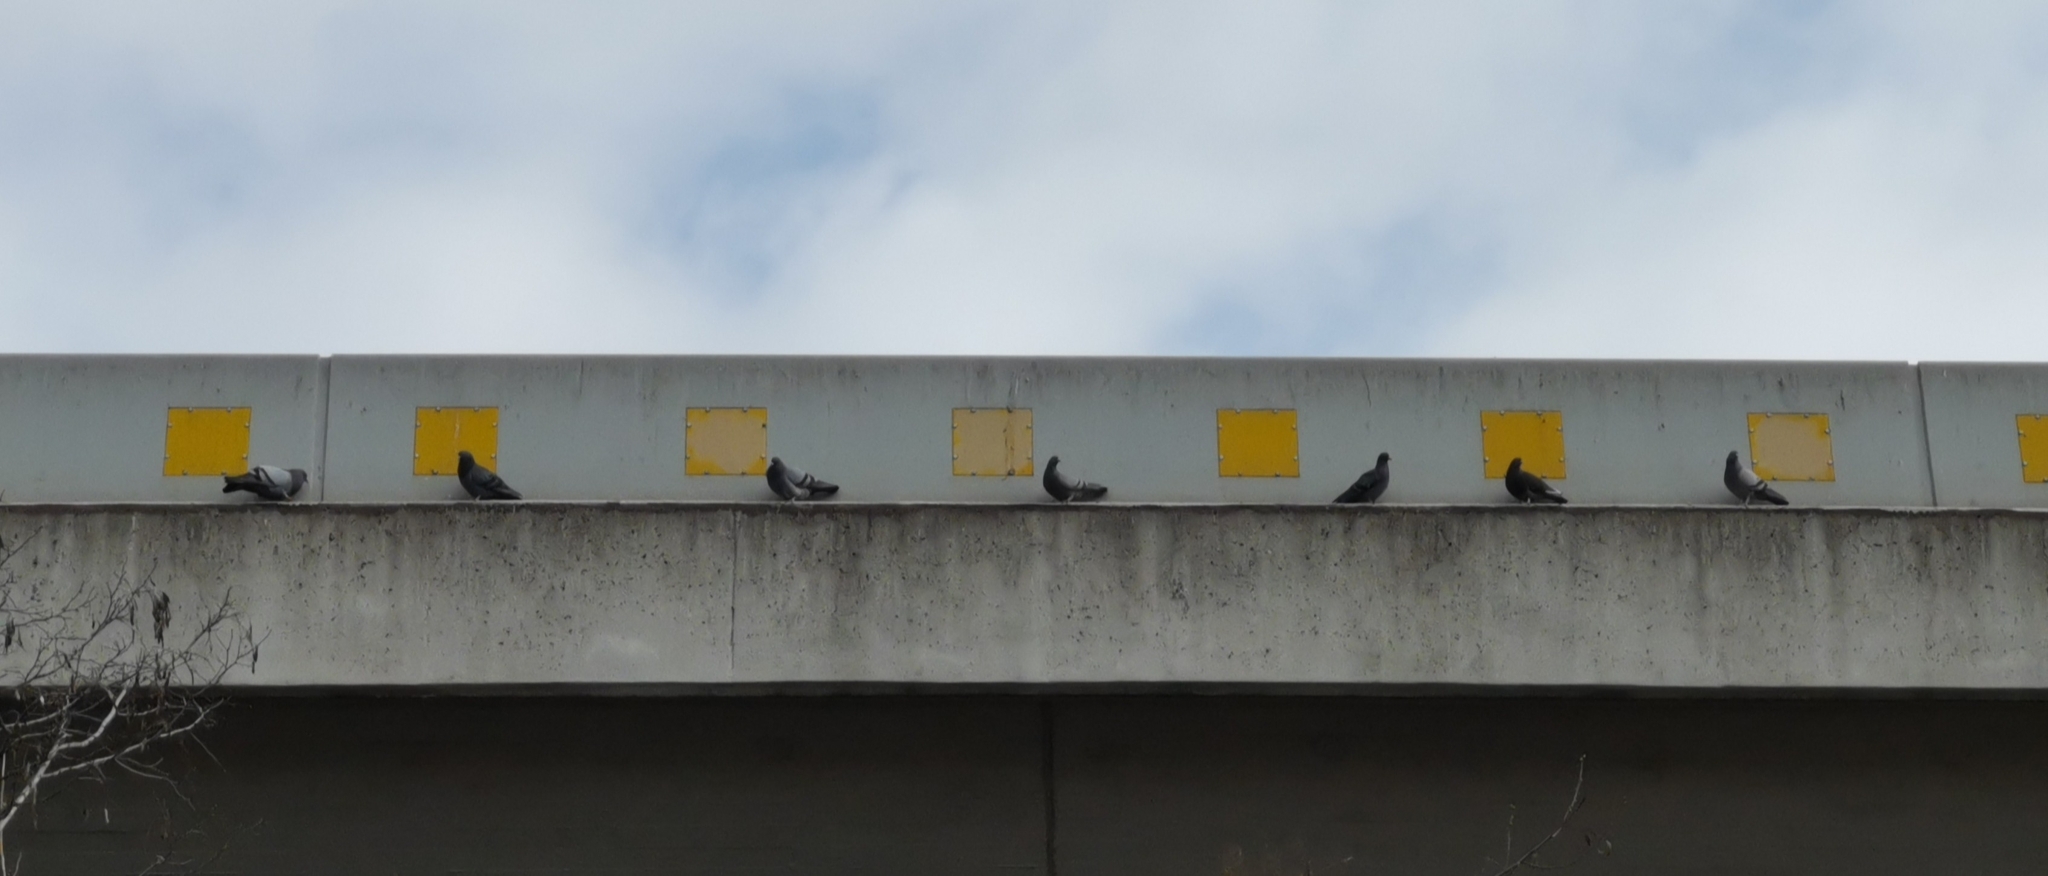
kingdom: Animalia
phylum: Chordata
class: Aves
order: Columbiformes
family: Columbidae
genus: Columba
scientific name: Columba livia
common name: Rock pigeon
